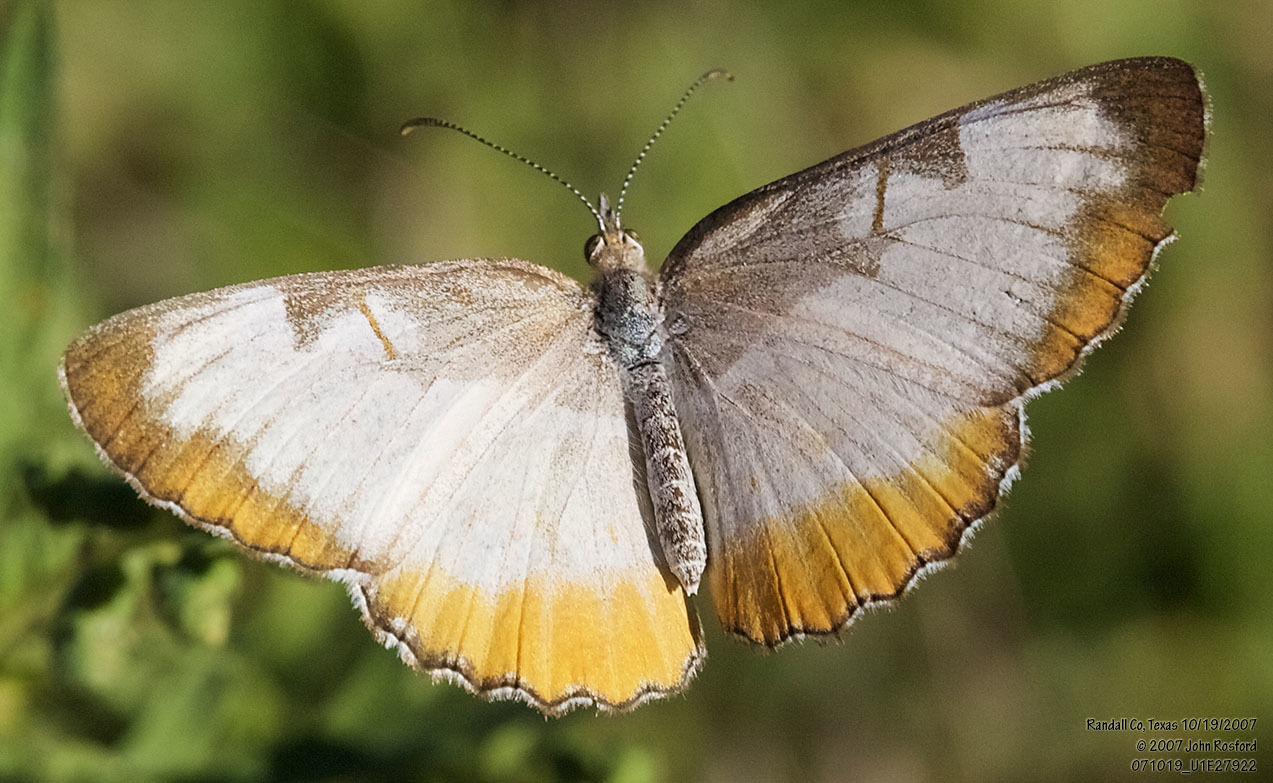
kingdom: Animalia
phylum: Arthropoda
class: Insecta
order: Lepidoptera
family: Nymphalidae
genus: Mestra
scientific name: Mestra amymone
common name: Common mestra
